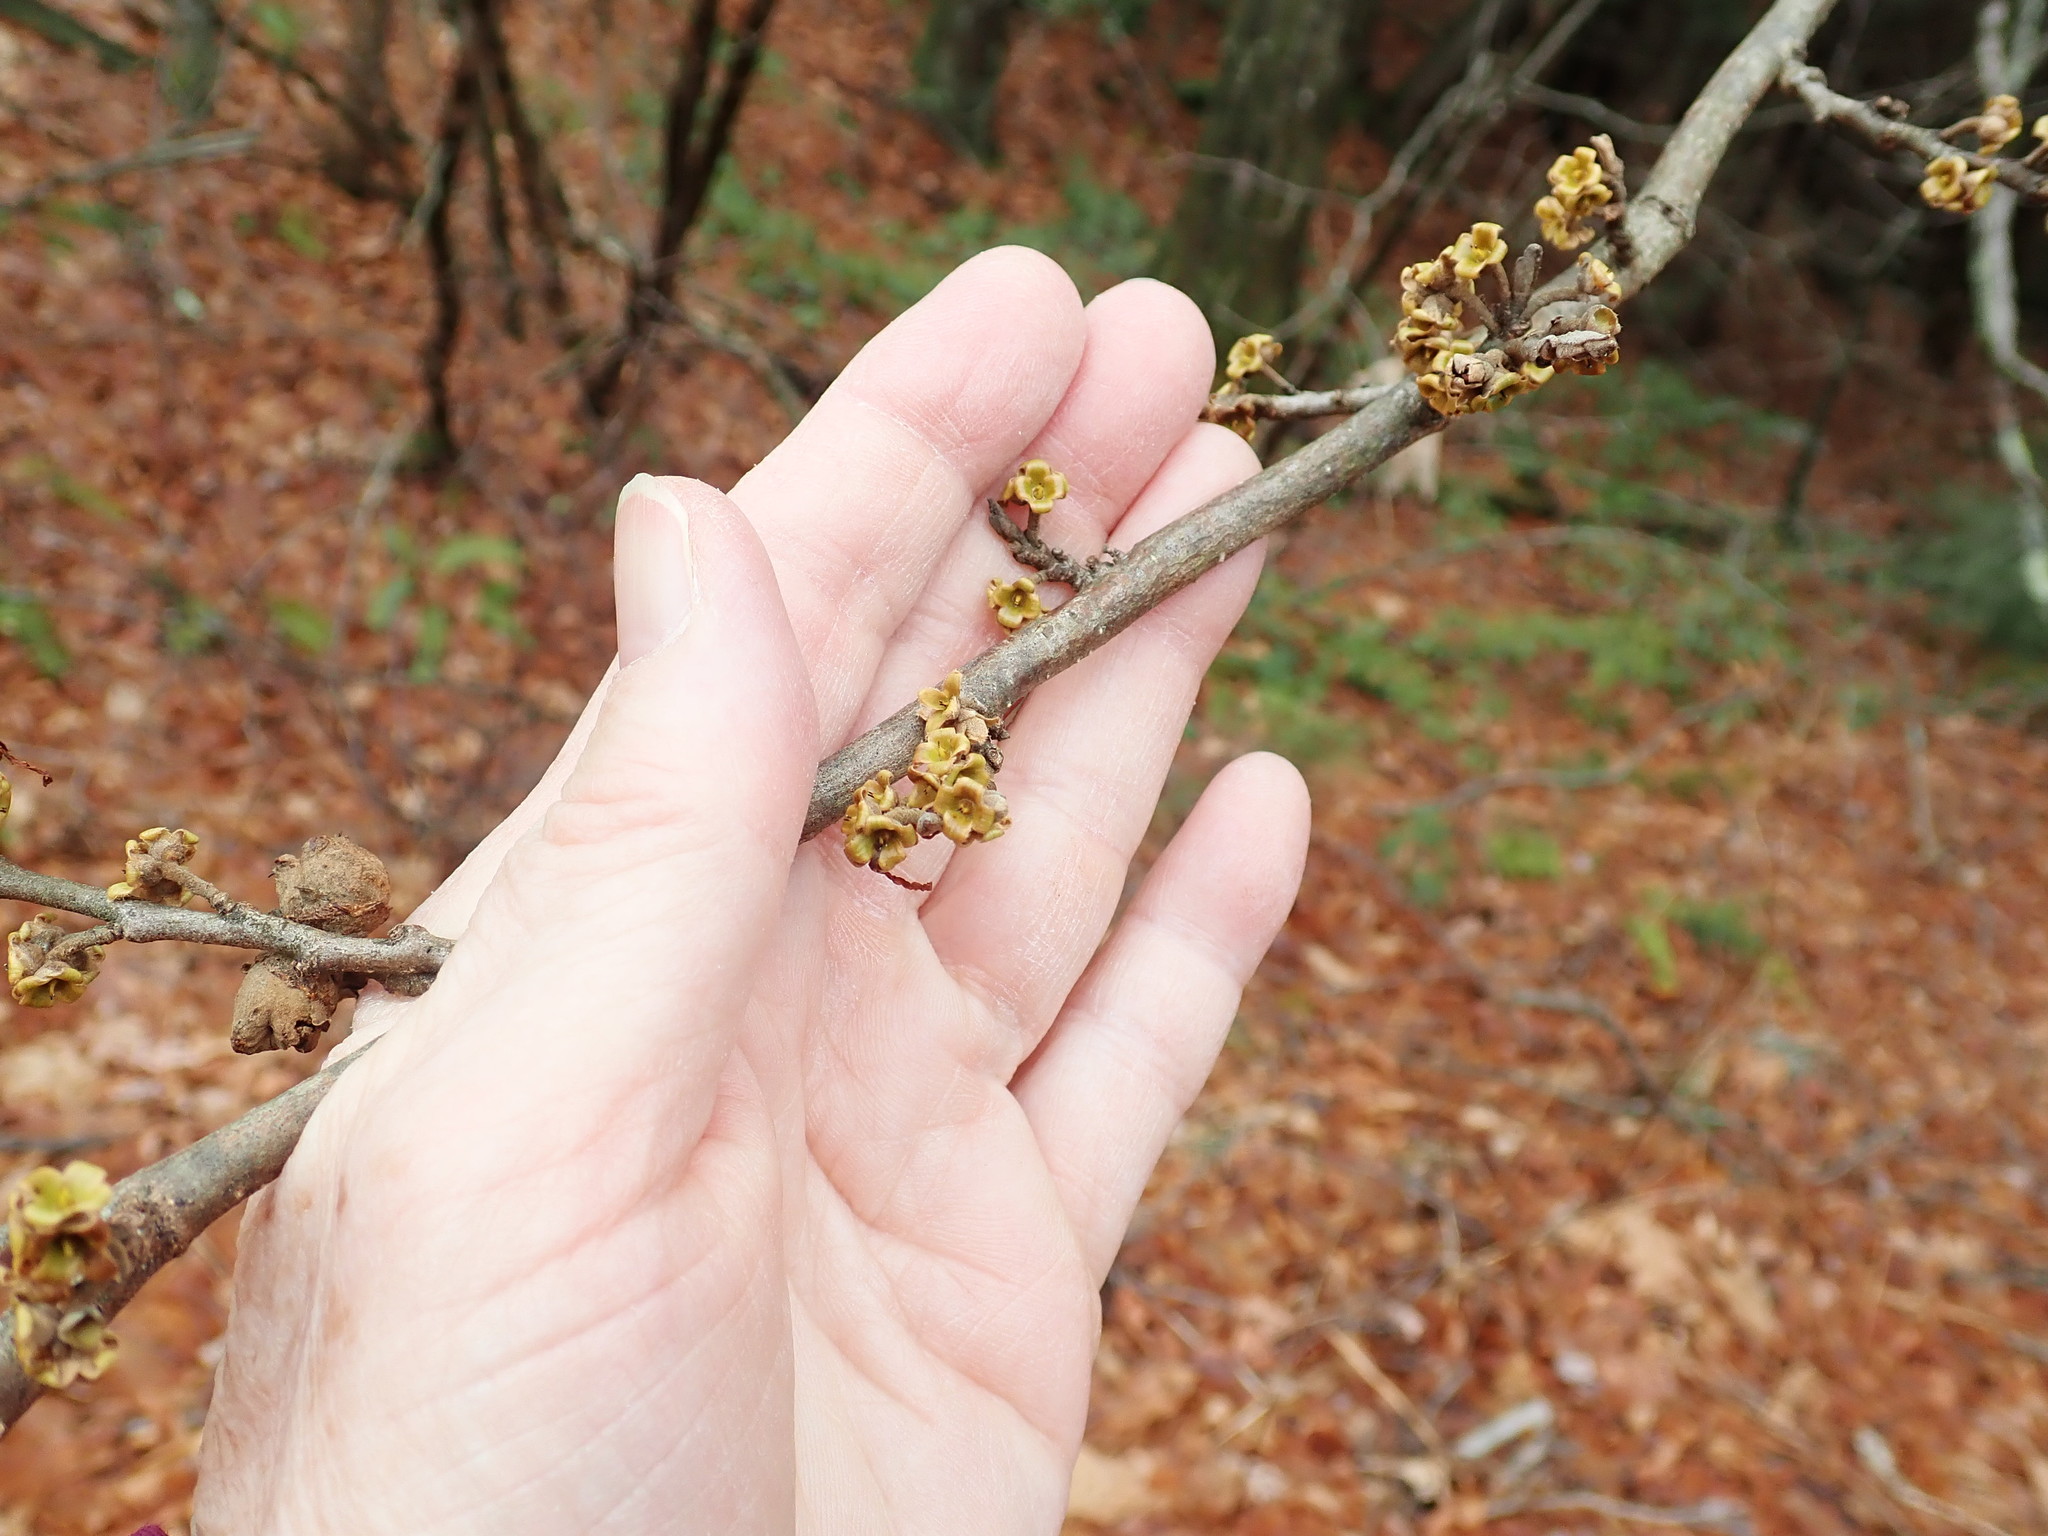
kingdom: Plantae
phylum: Tracheophyta
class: Magnoliopsida
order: Saxifragales
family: Hamamelidaceae
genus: Hamamelis
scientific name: Hamamelis virginiana
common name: Witch-hazel
